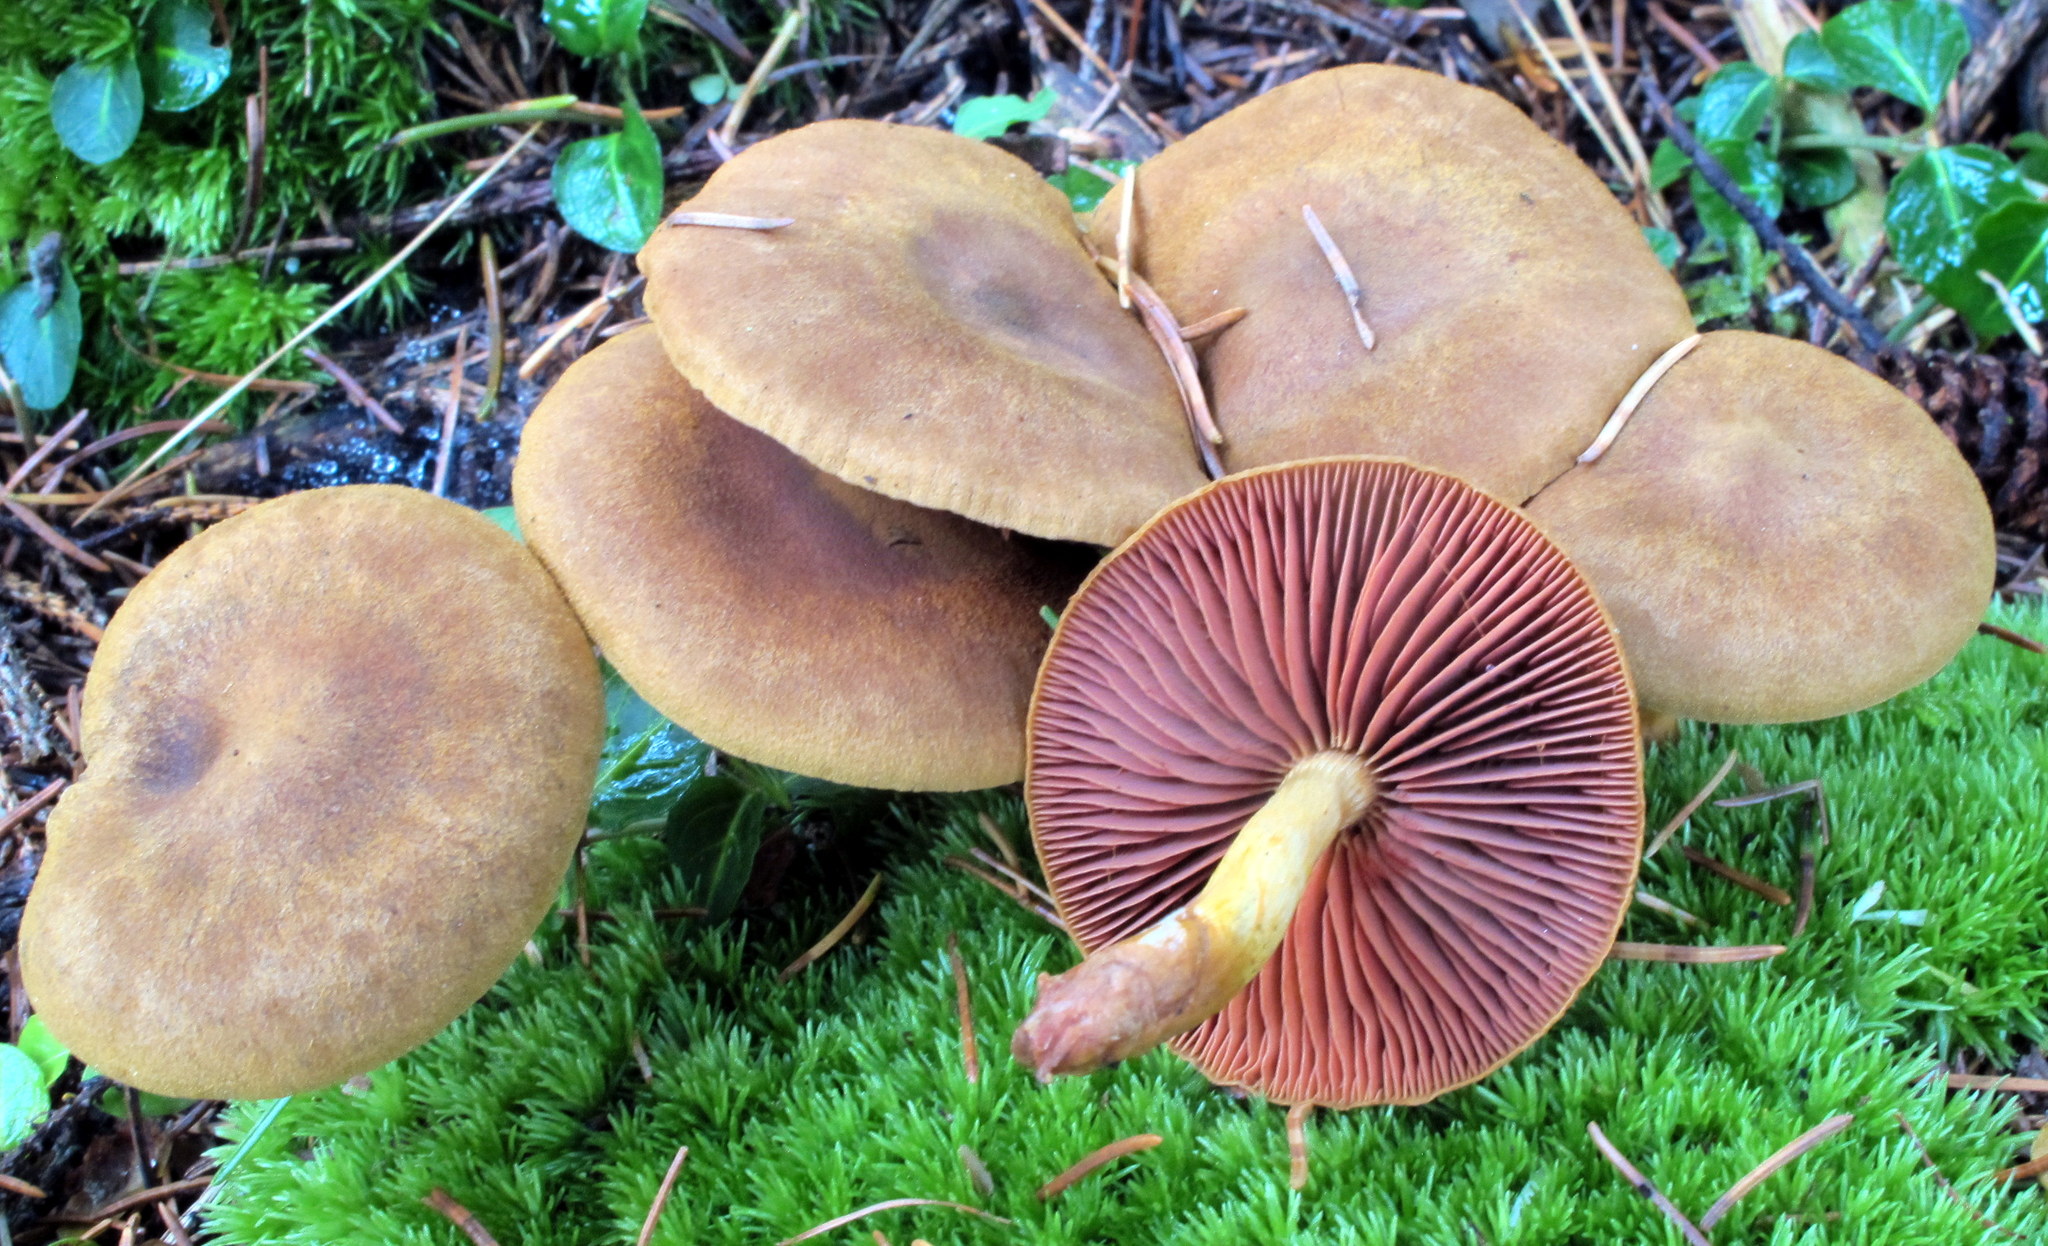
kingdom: Fungi
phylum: Basidiomycota
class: Agaricomycetes
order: Agaricales
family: Cortinariaceae
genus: Cortinarius
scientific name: Cortinarius semisanguineus
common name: Surprise webcap
